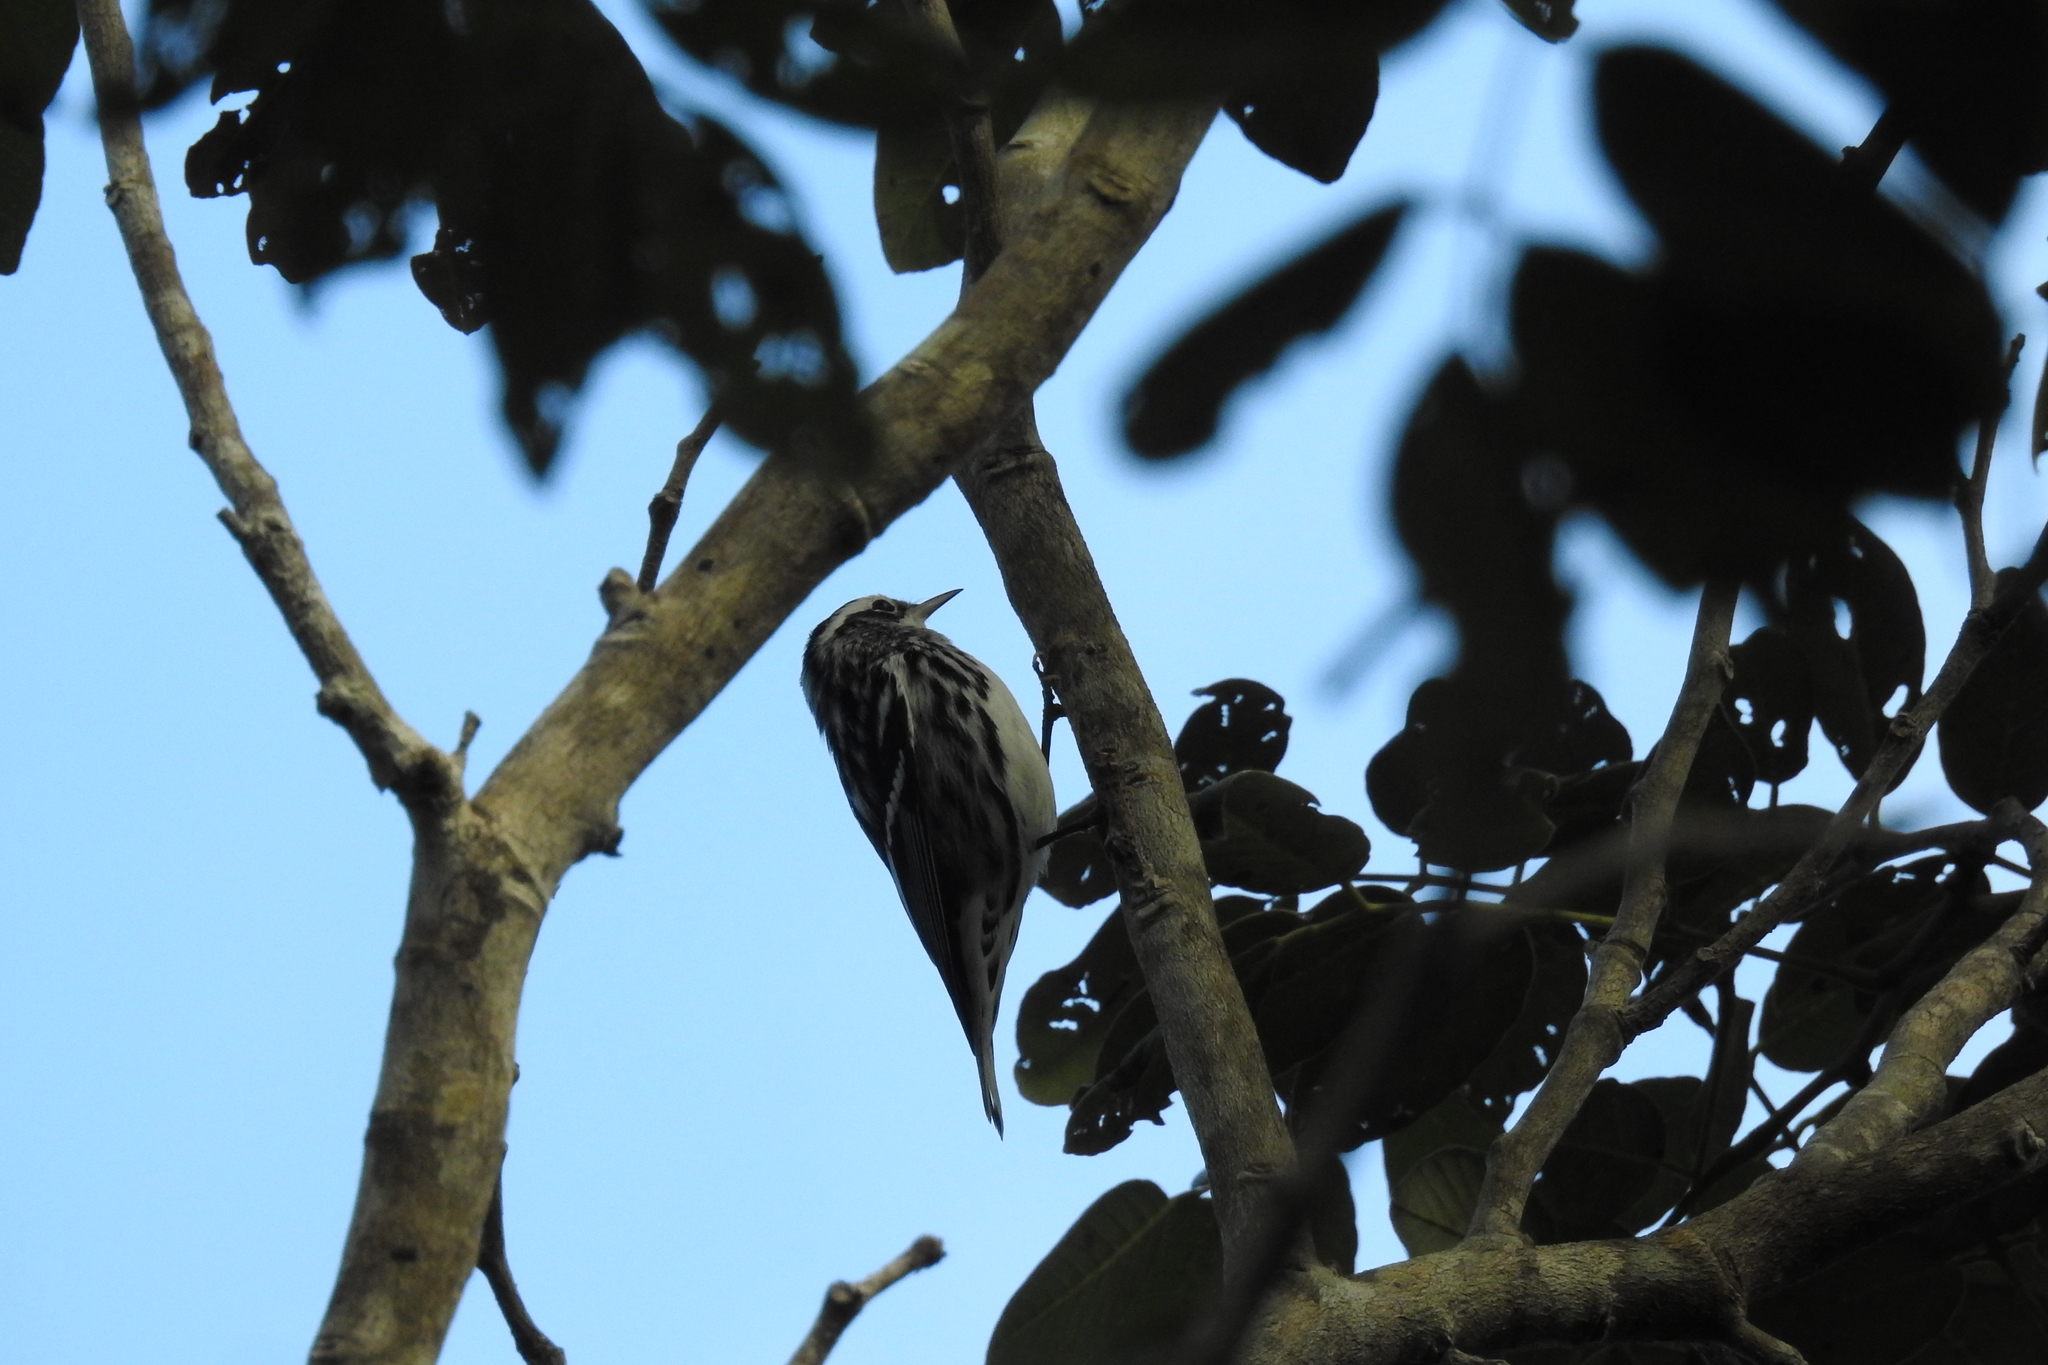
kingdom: Animalia
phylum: Chordata
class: Aves
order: Passeriformes
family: Parulidae
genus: Mniotilta
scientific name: Mniotilta varia
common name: Black-and-white warbler
